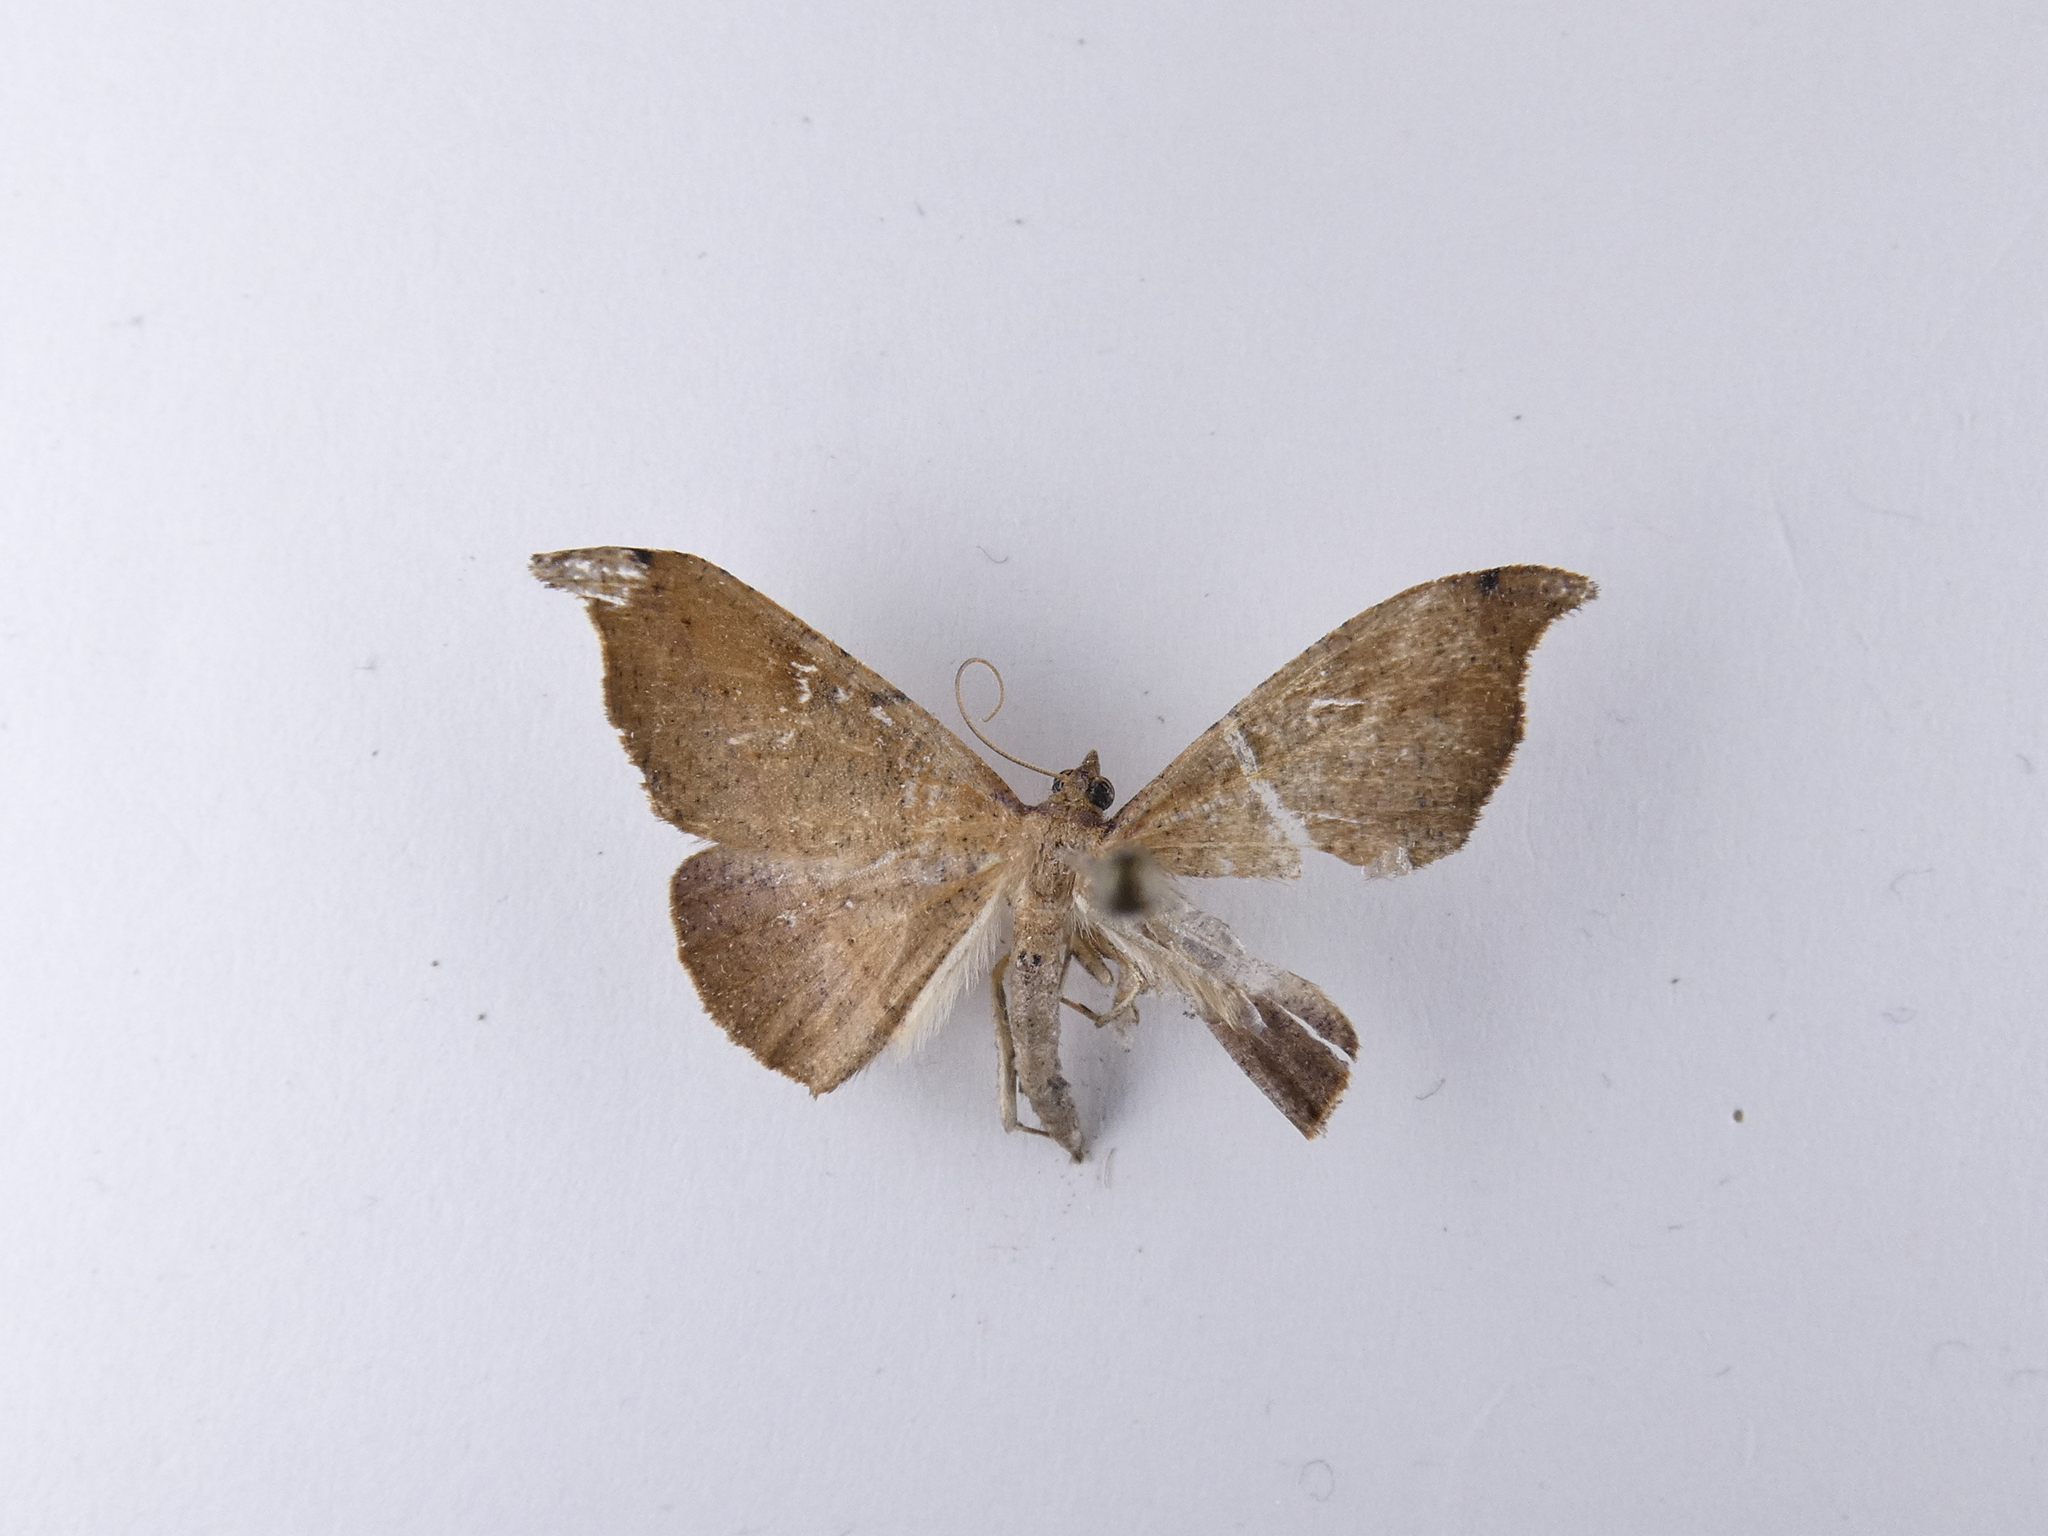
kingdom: Animalia
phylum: Arthropoda
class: Insecta
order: Lepidoptera
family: Geometridae
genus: Sarisa
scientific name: Sarisa muriferata
